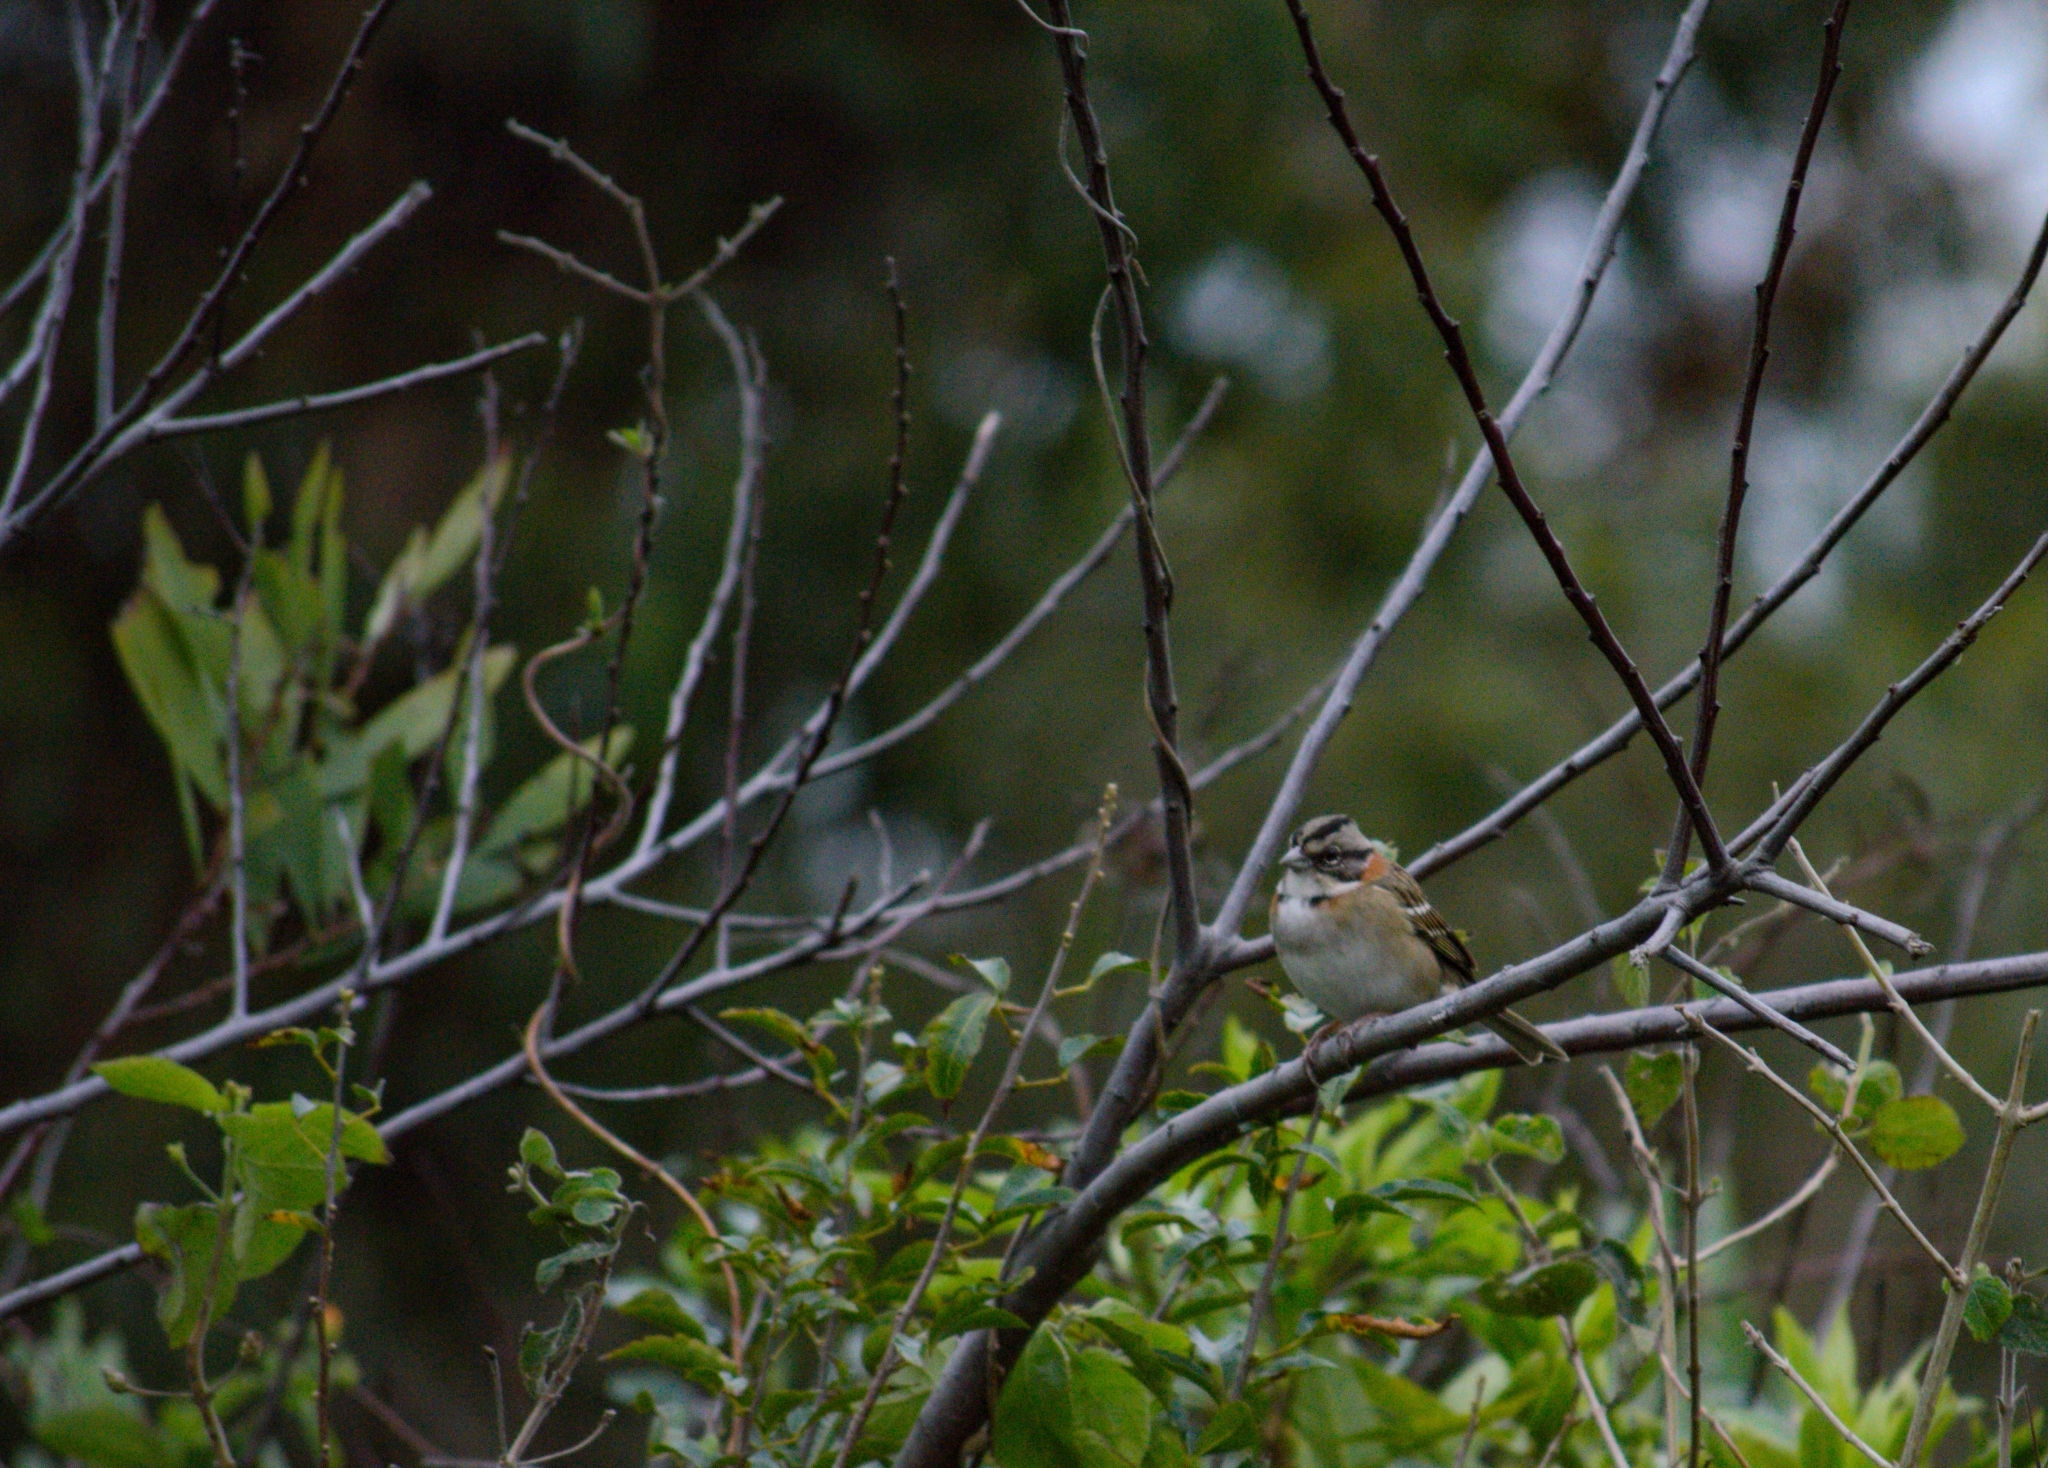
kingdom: Animalia
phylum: Chordata
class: Aves
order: Passeriformes
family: Passerellidae
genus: Zonotrichia
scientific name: Zonotrichia capensis
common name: Rufous-collared sparrow
